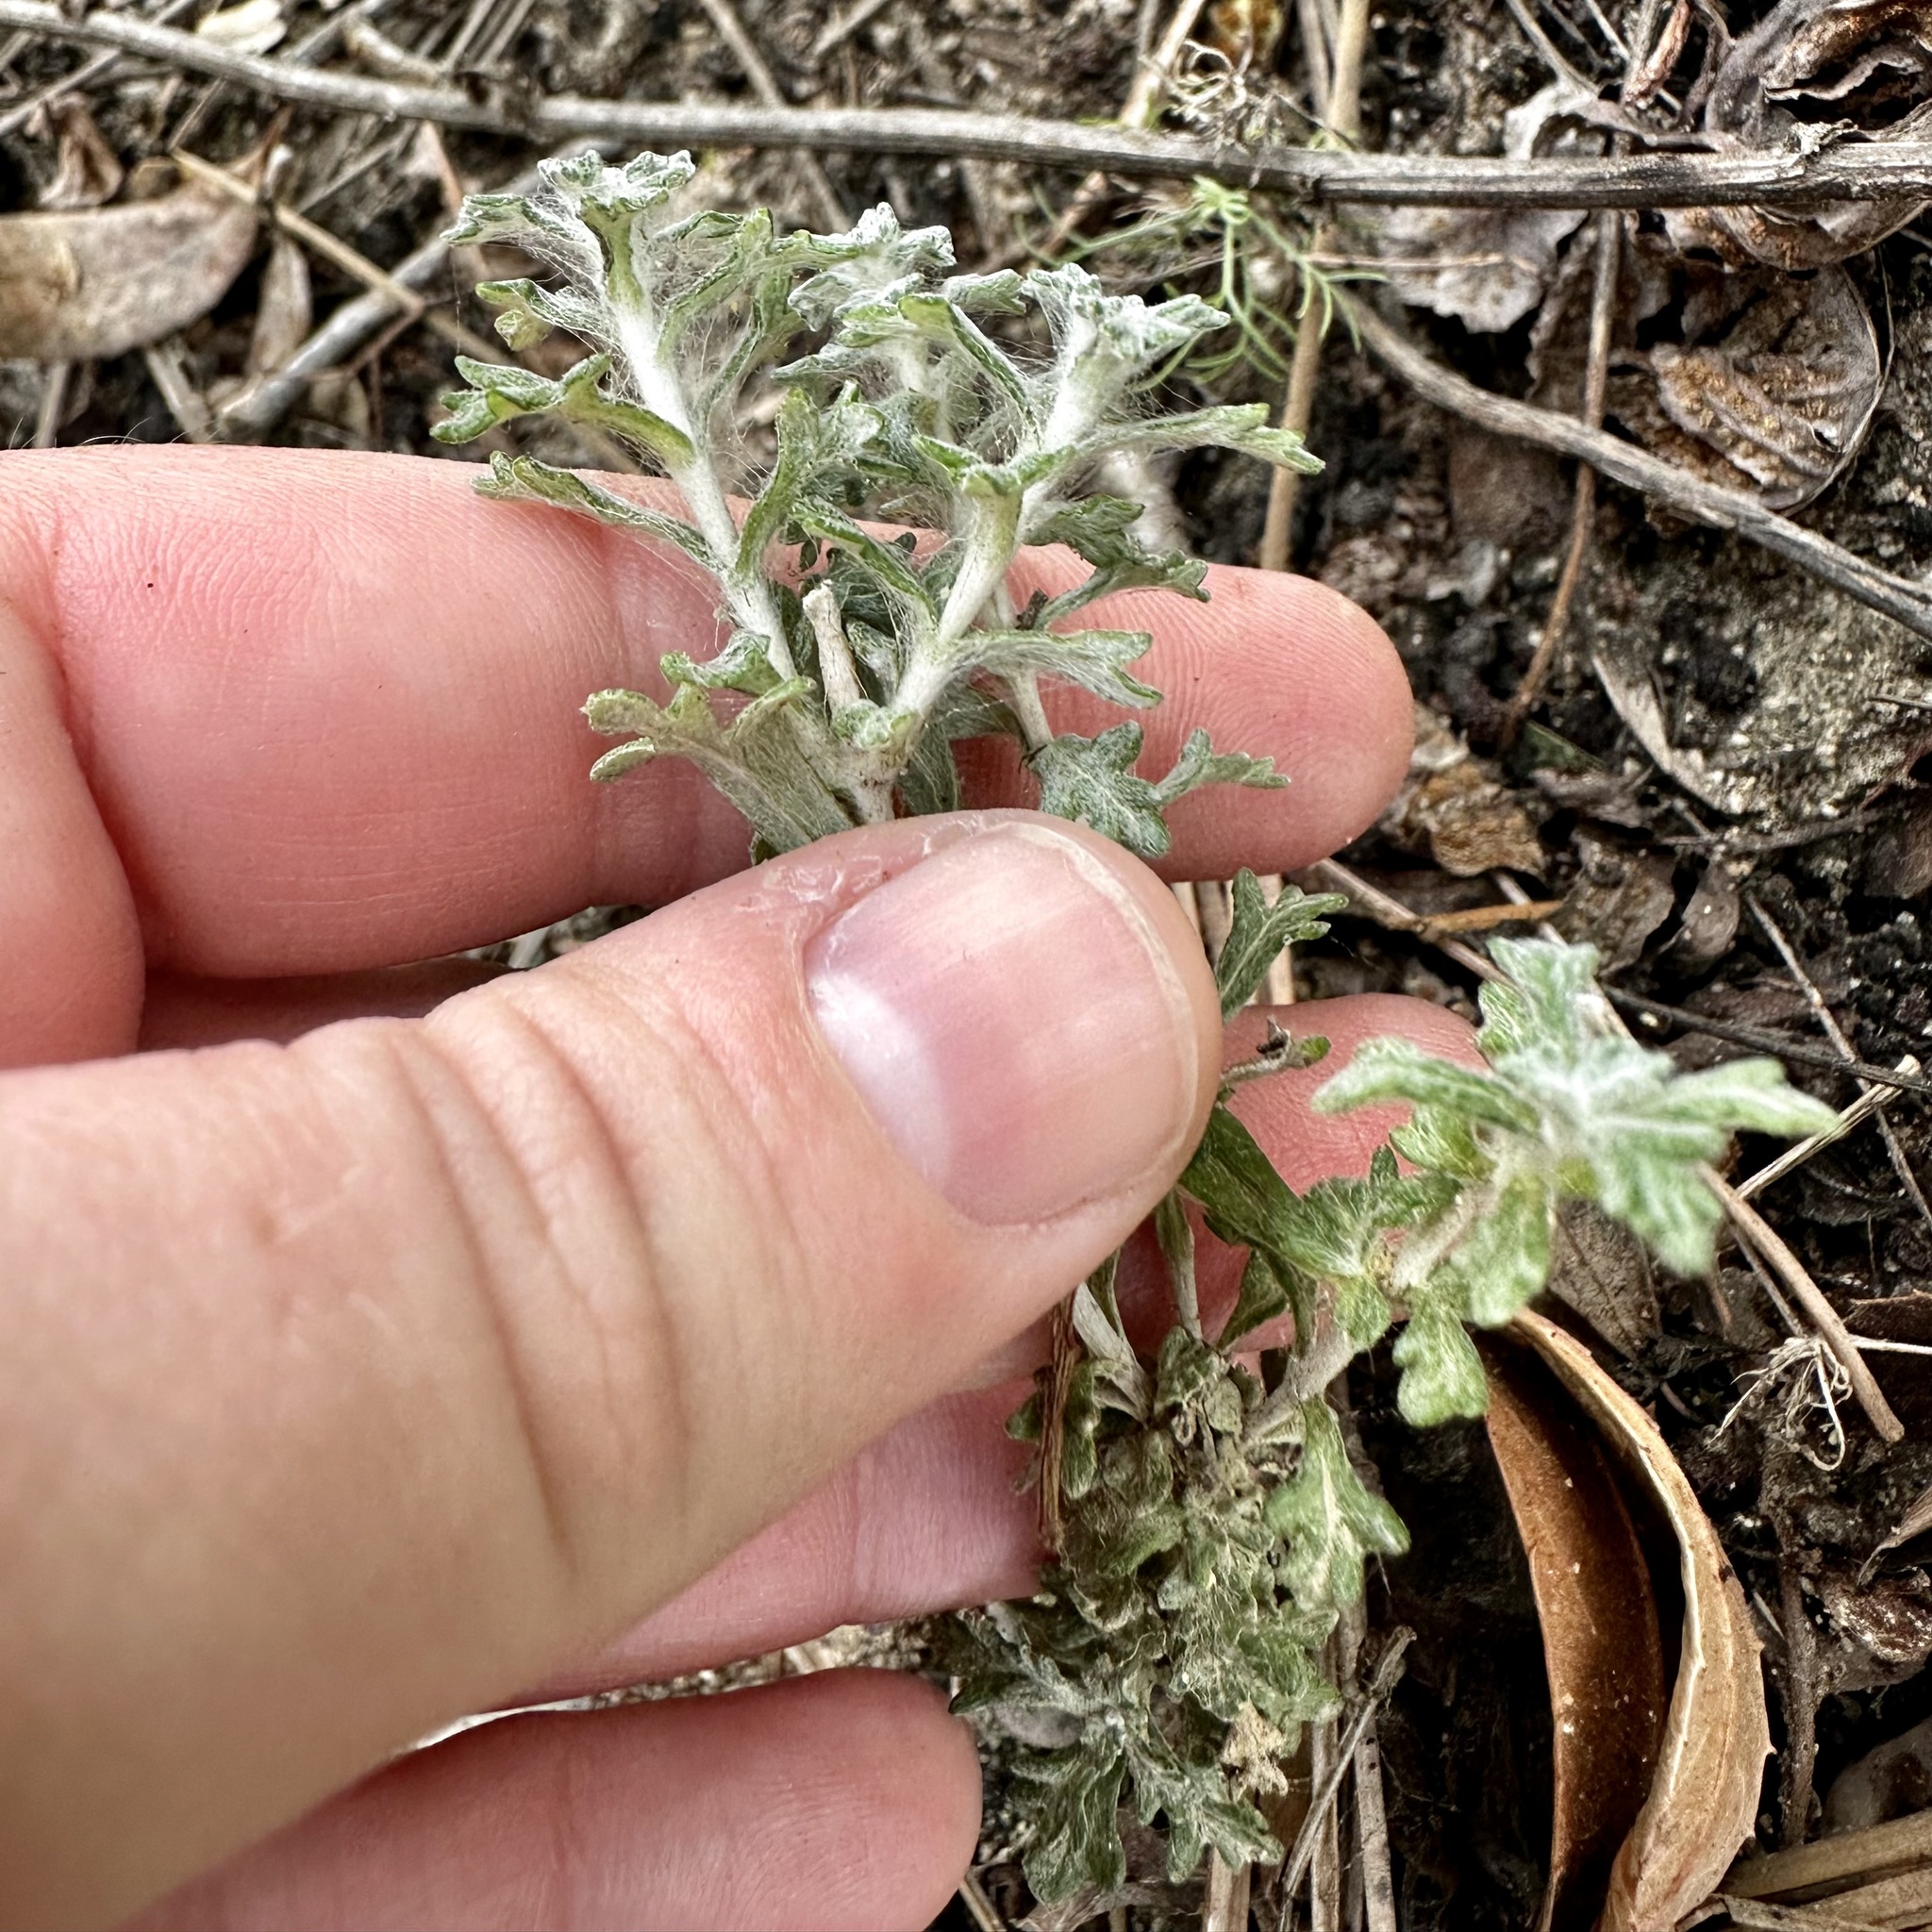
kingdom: Plantae
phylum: Tracheophyta
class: Magnoliopsida
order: Asterales
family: Asteraceae
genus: Eriophyllum
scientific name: Eriophyllum confertiflorum
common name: Golden-yarrow
